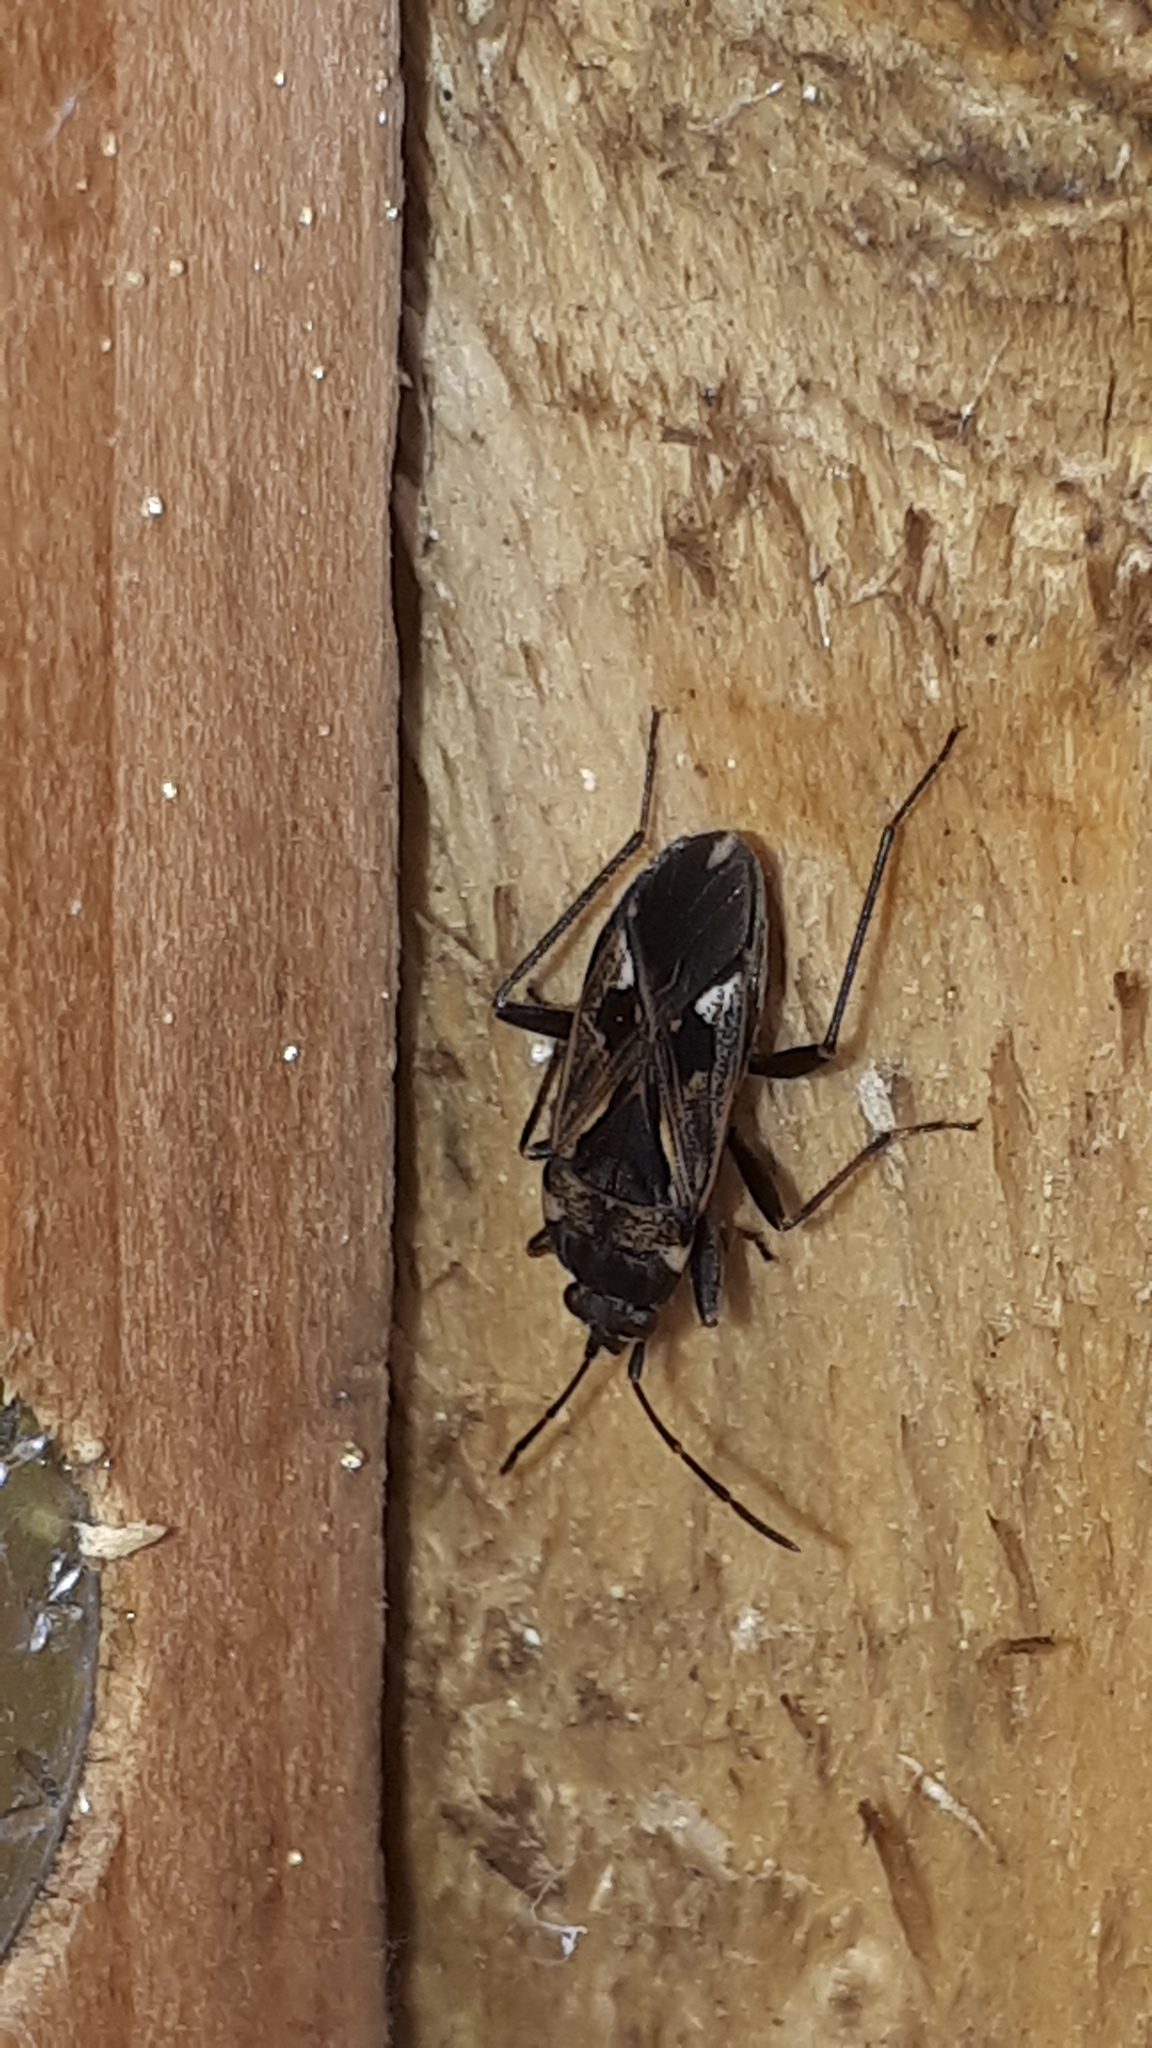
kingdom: Animalia
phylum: Arthropoda
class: Insecta
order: Hemiptera
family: Rhyparochromidae
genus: Rhyparochromus
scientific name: Rhyparochromus vulgaris
